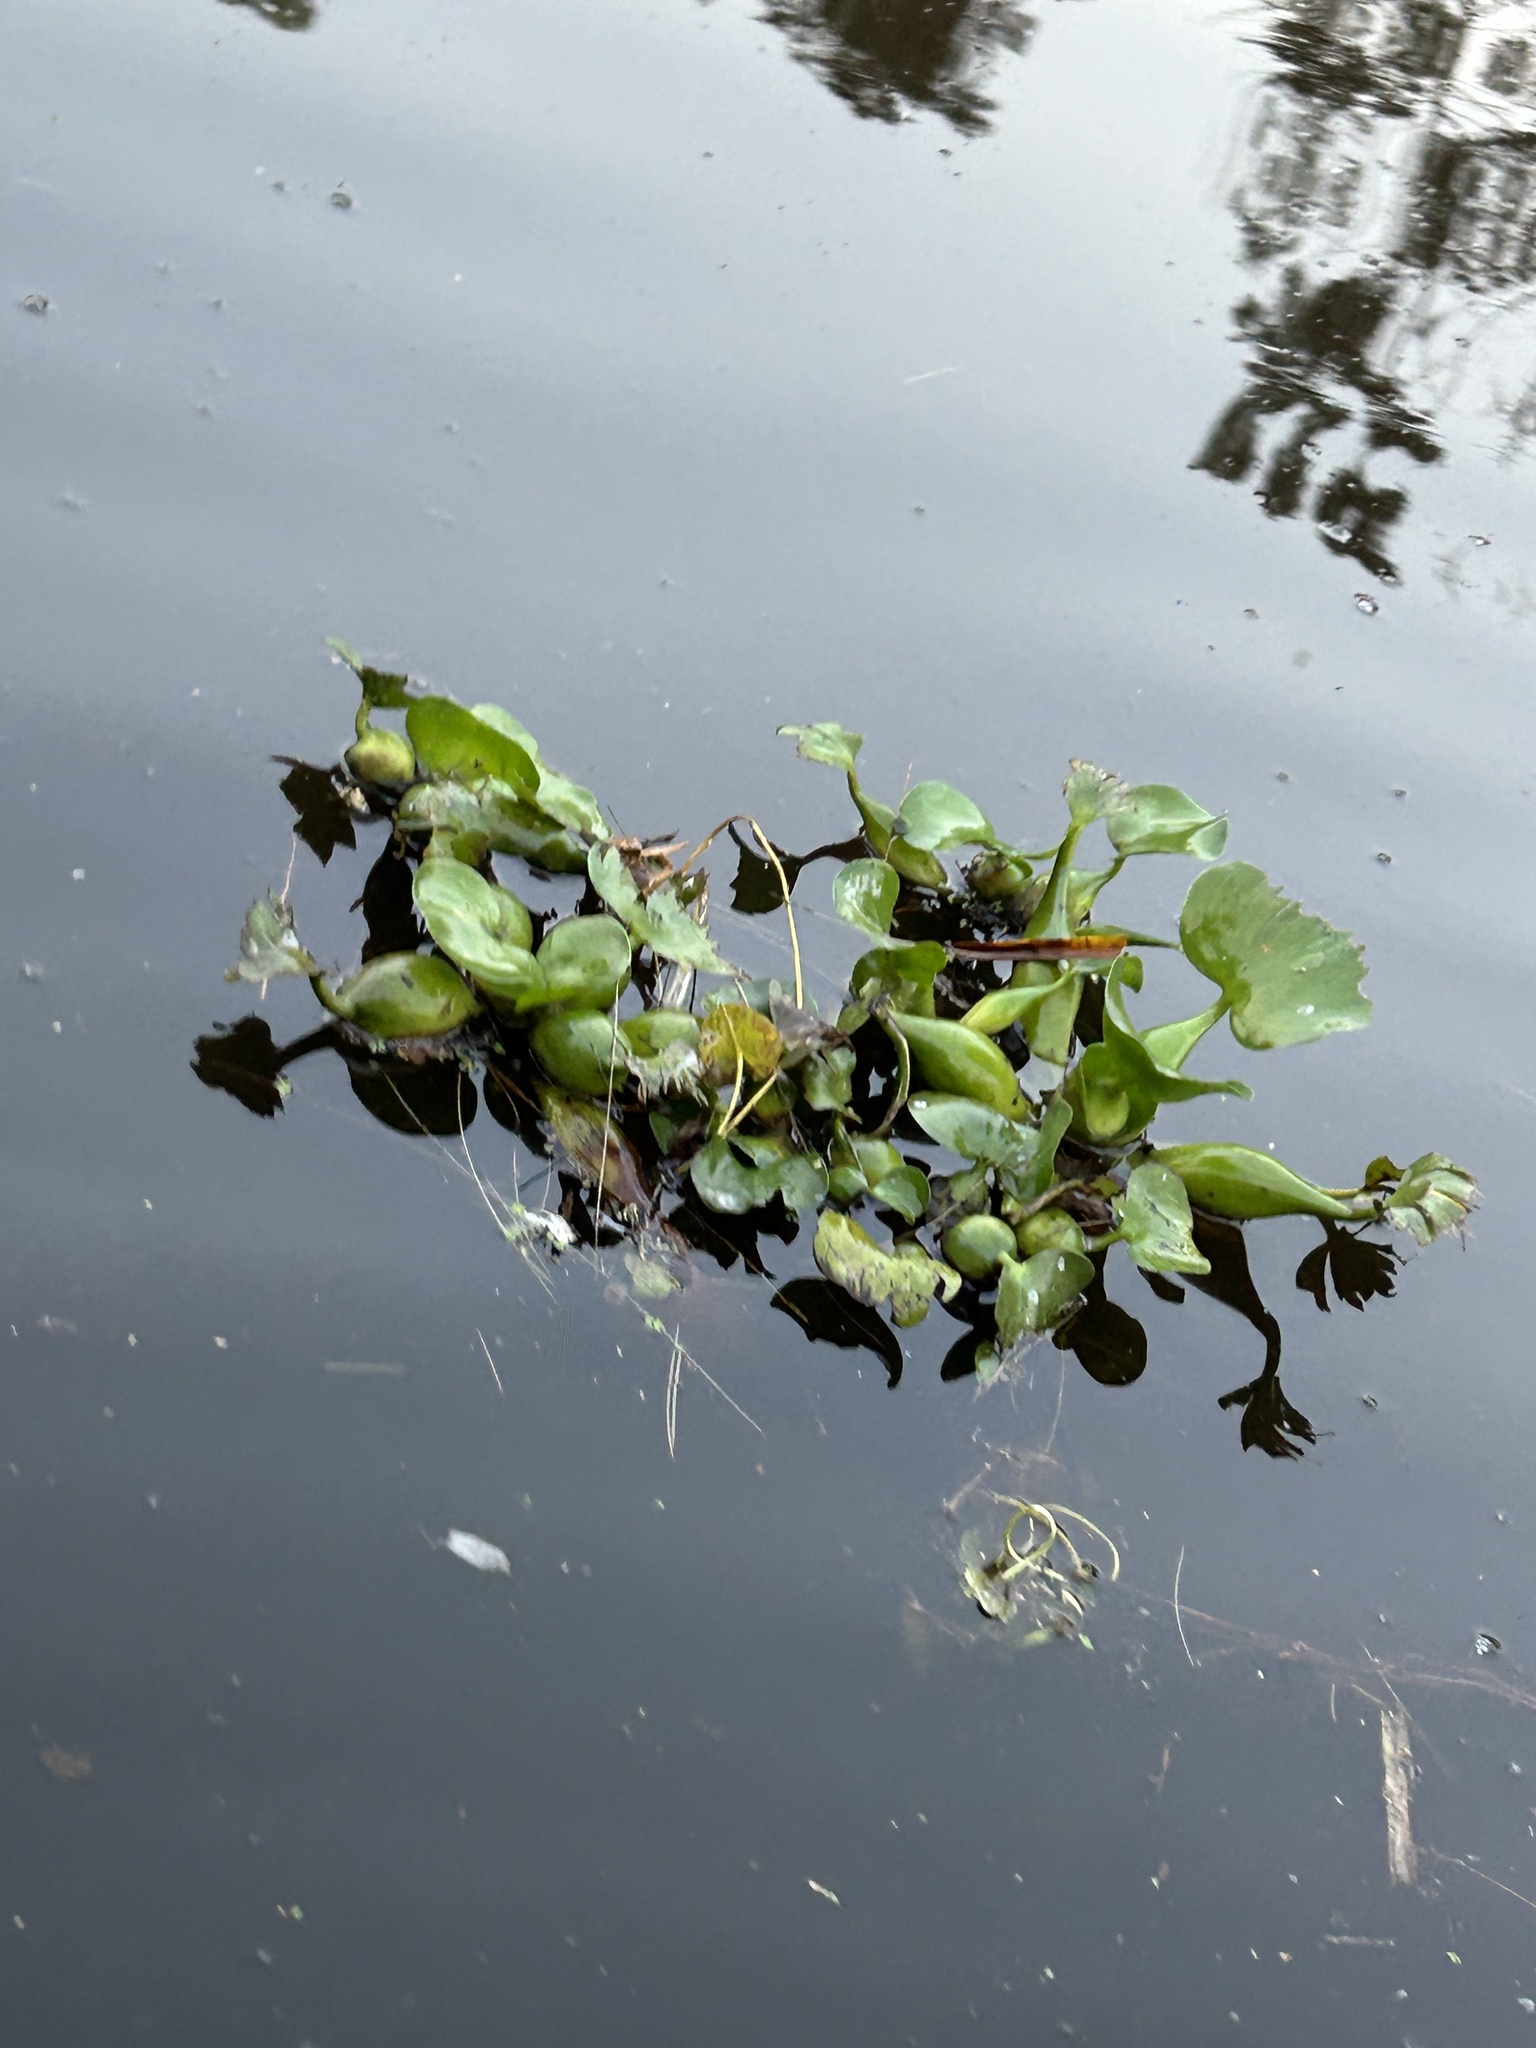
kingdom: Plantae
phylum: Tracheophyta
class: Liliopsida
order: Commelinales
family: Pontederiaceae
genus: Pontederia
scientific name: Pontederia crassipes
